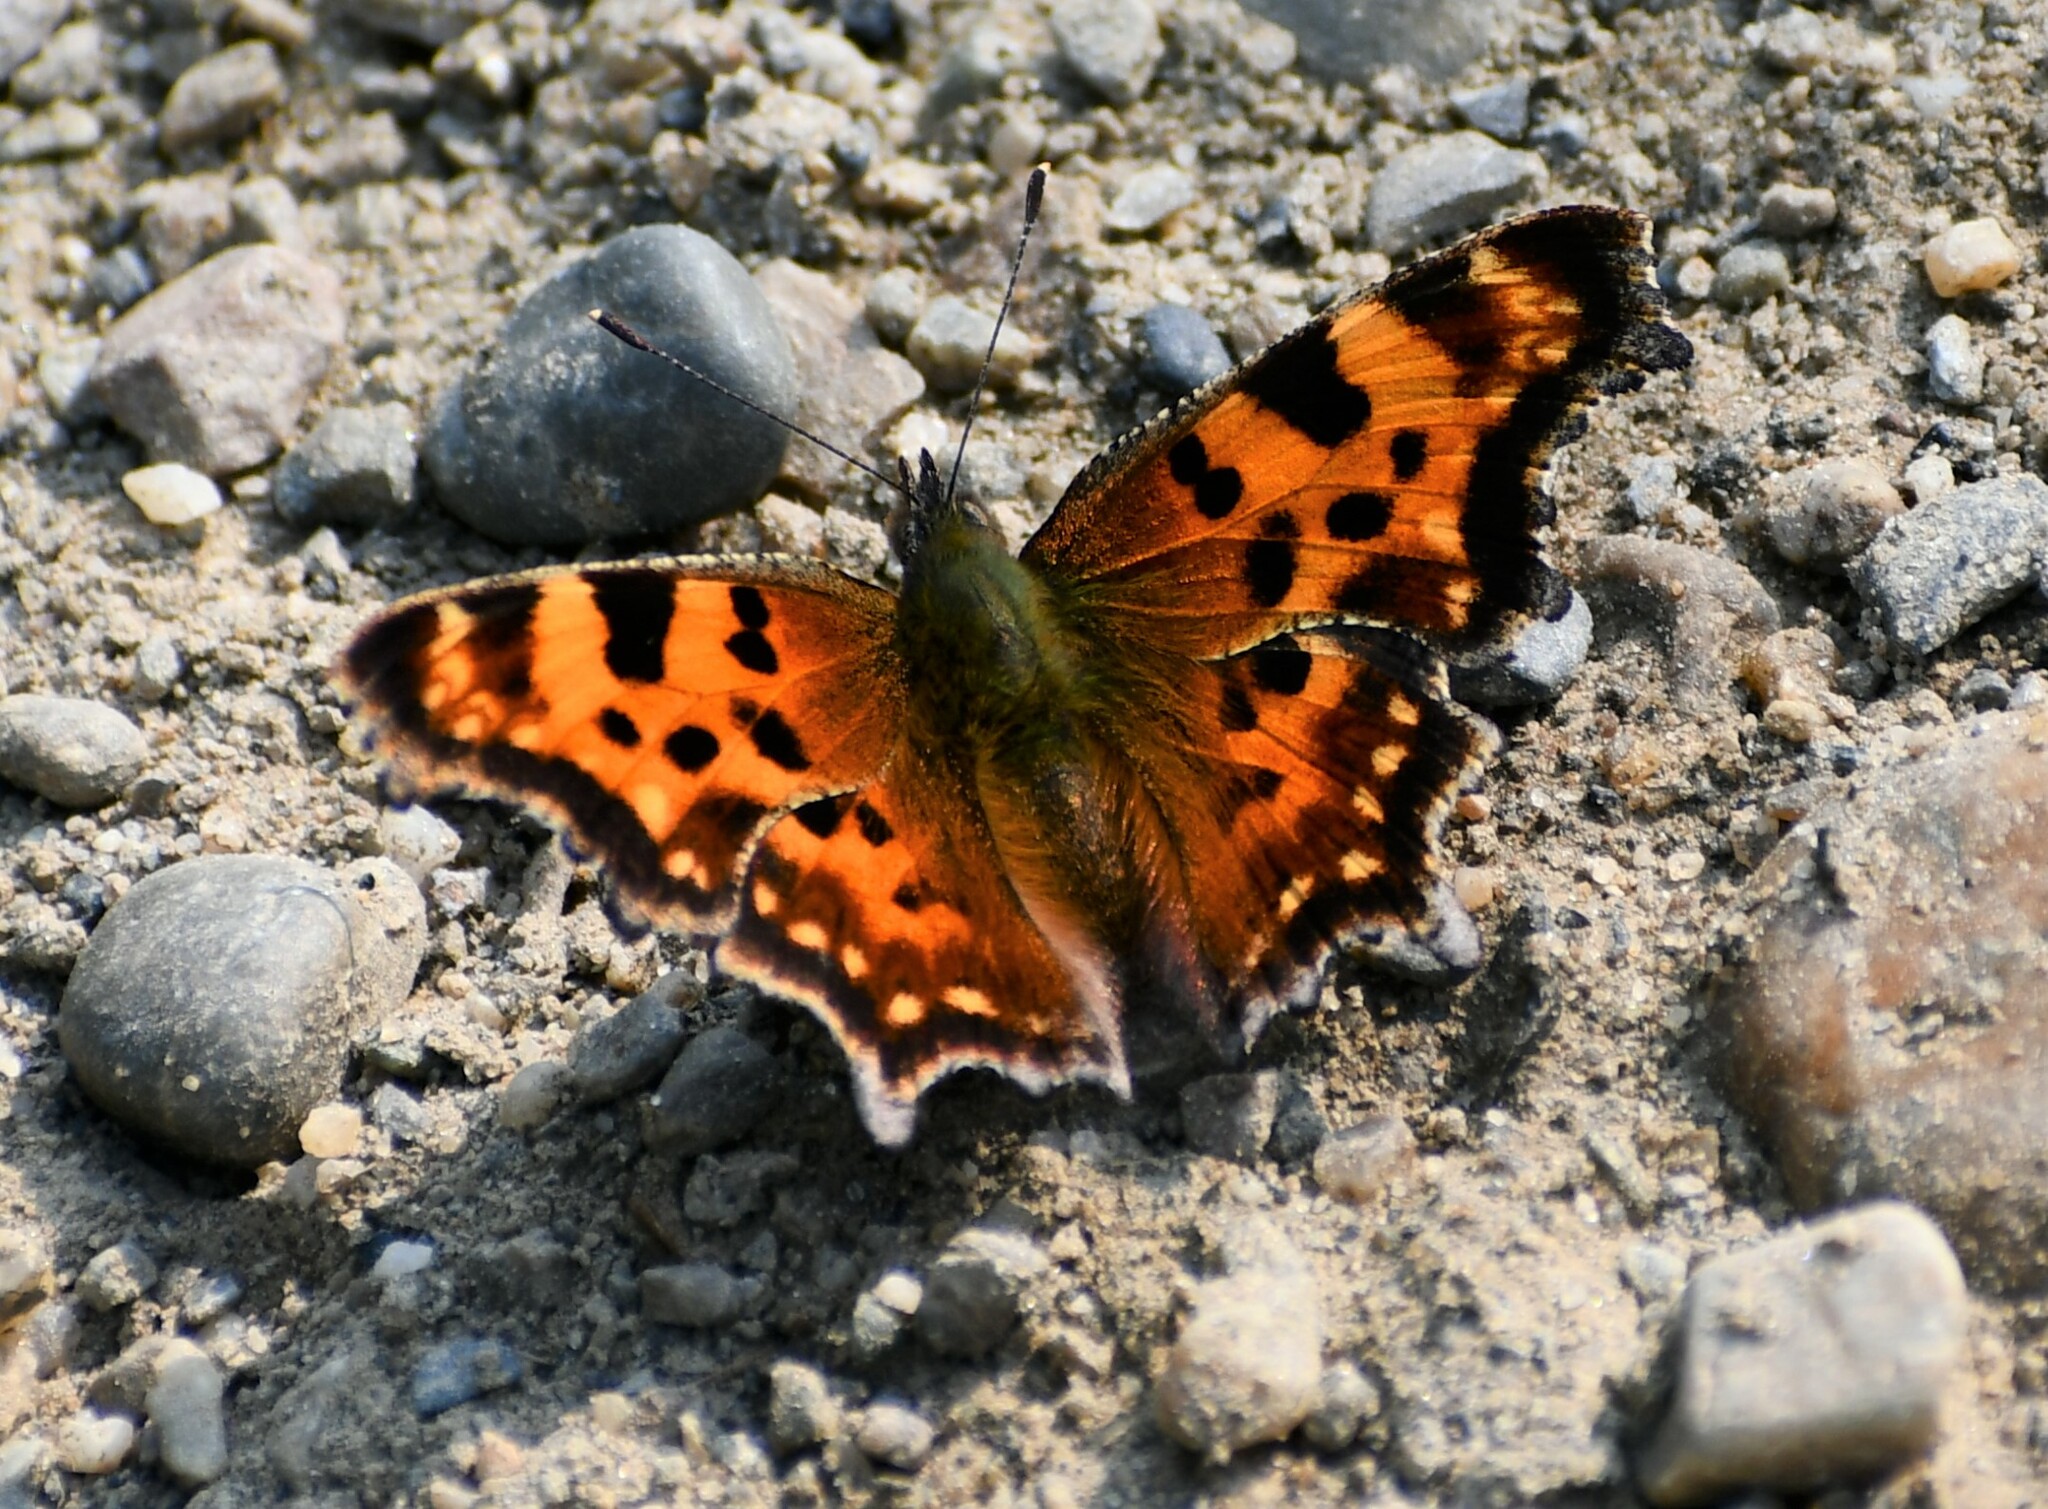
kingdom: Animalia
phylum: Arthropoda
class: Insecta
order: Lepidoptera
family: Nymphalidae
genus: Polygonia
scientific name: Polygonia faunus
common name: Green comma
